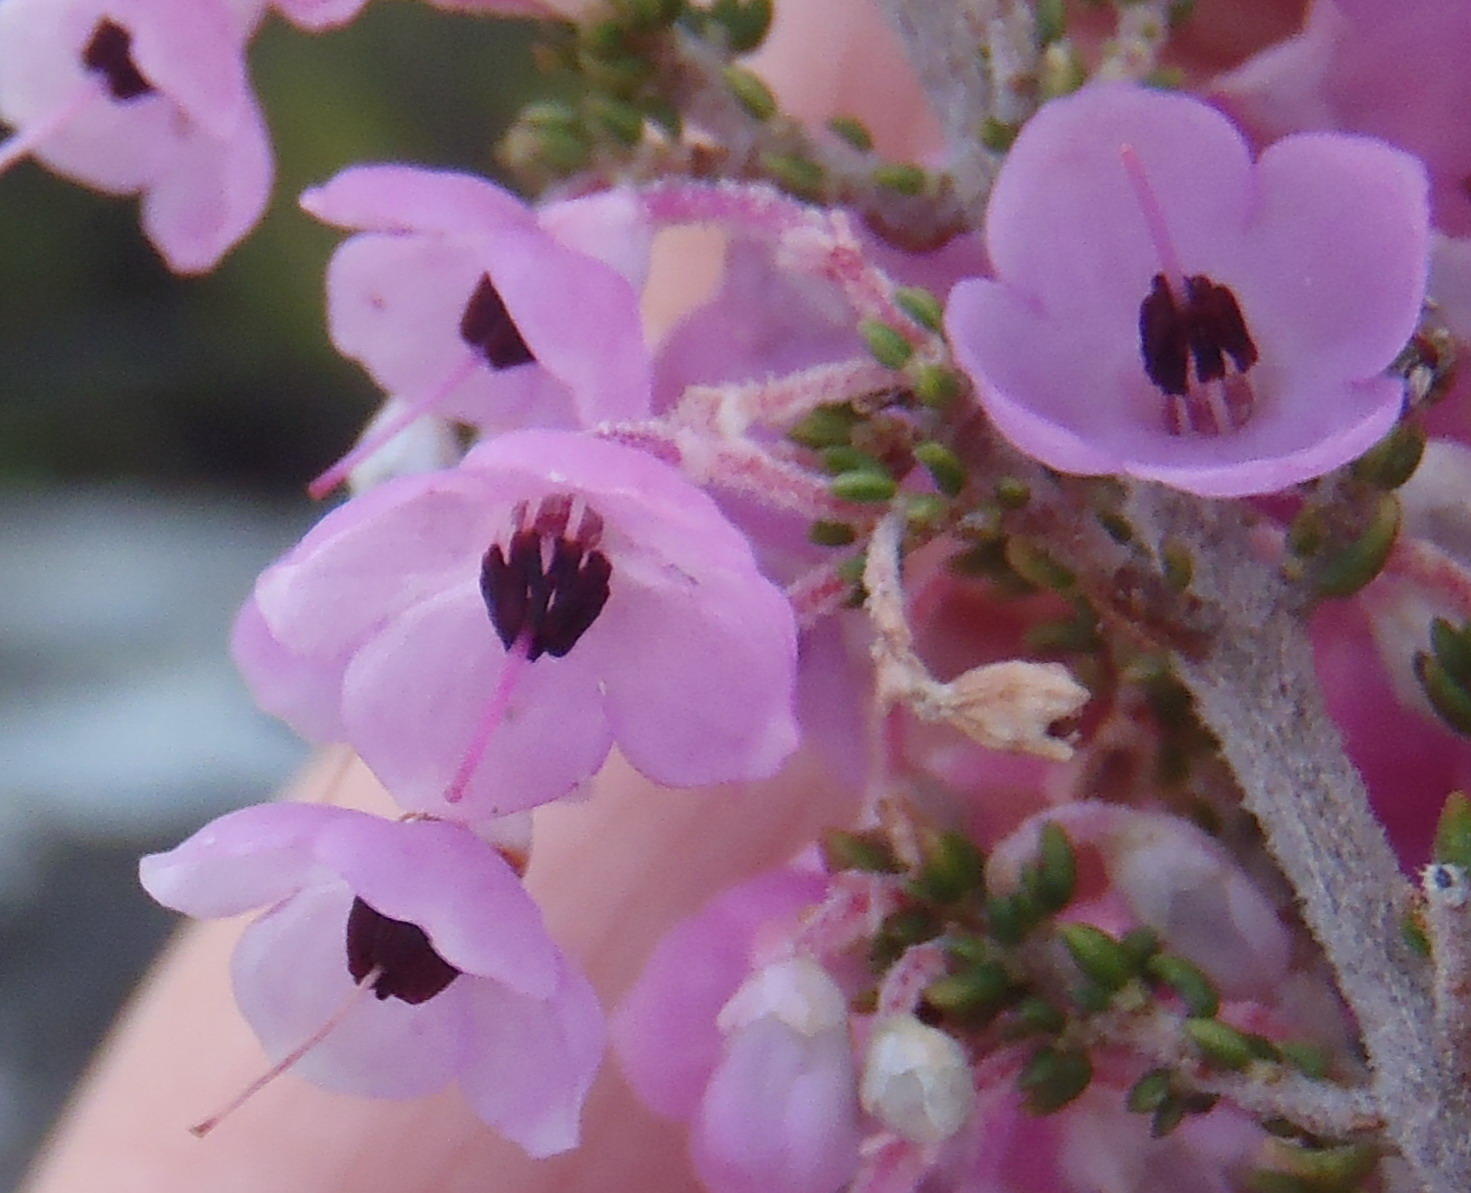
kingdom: Plantae
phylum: Tracheophyta
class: Magnoliopsida
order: Ericales
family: Ericaceae
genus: Erica
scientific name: Erica melanthera
